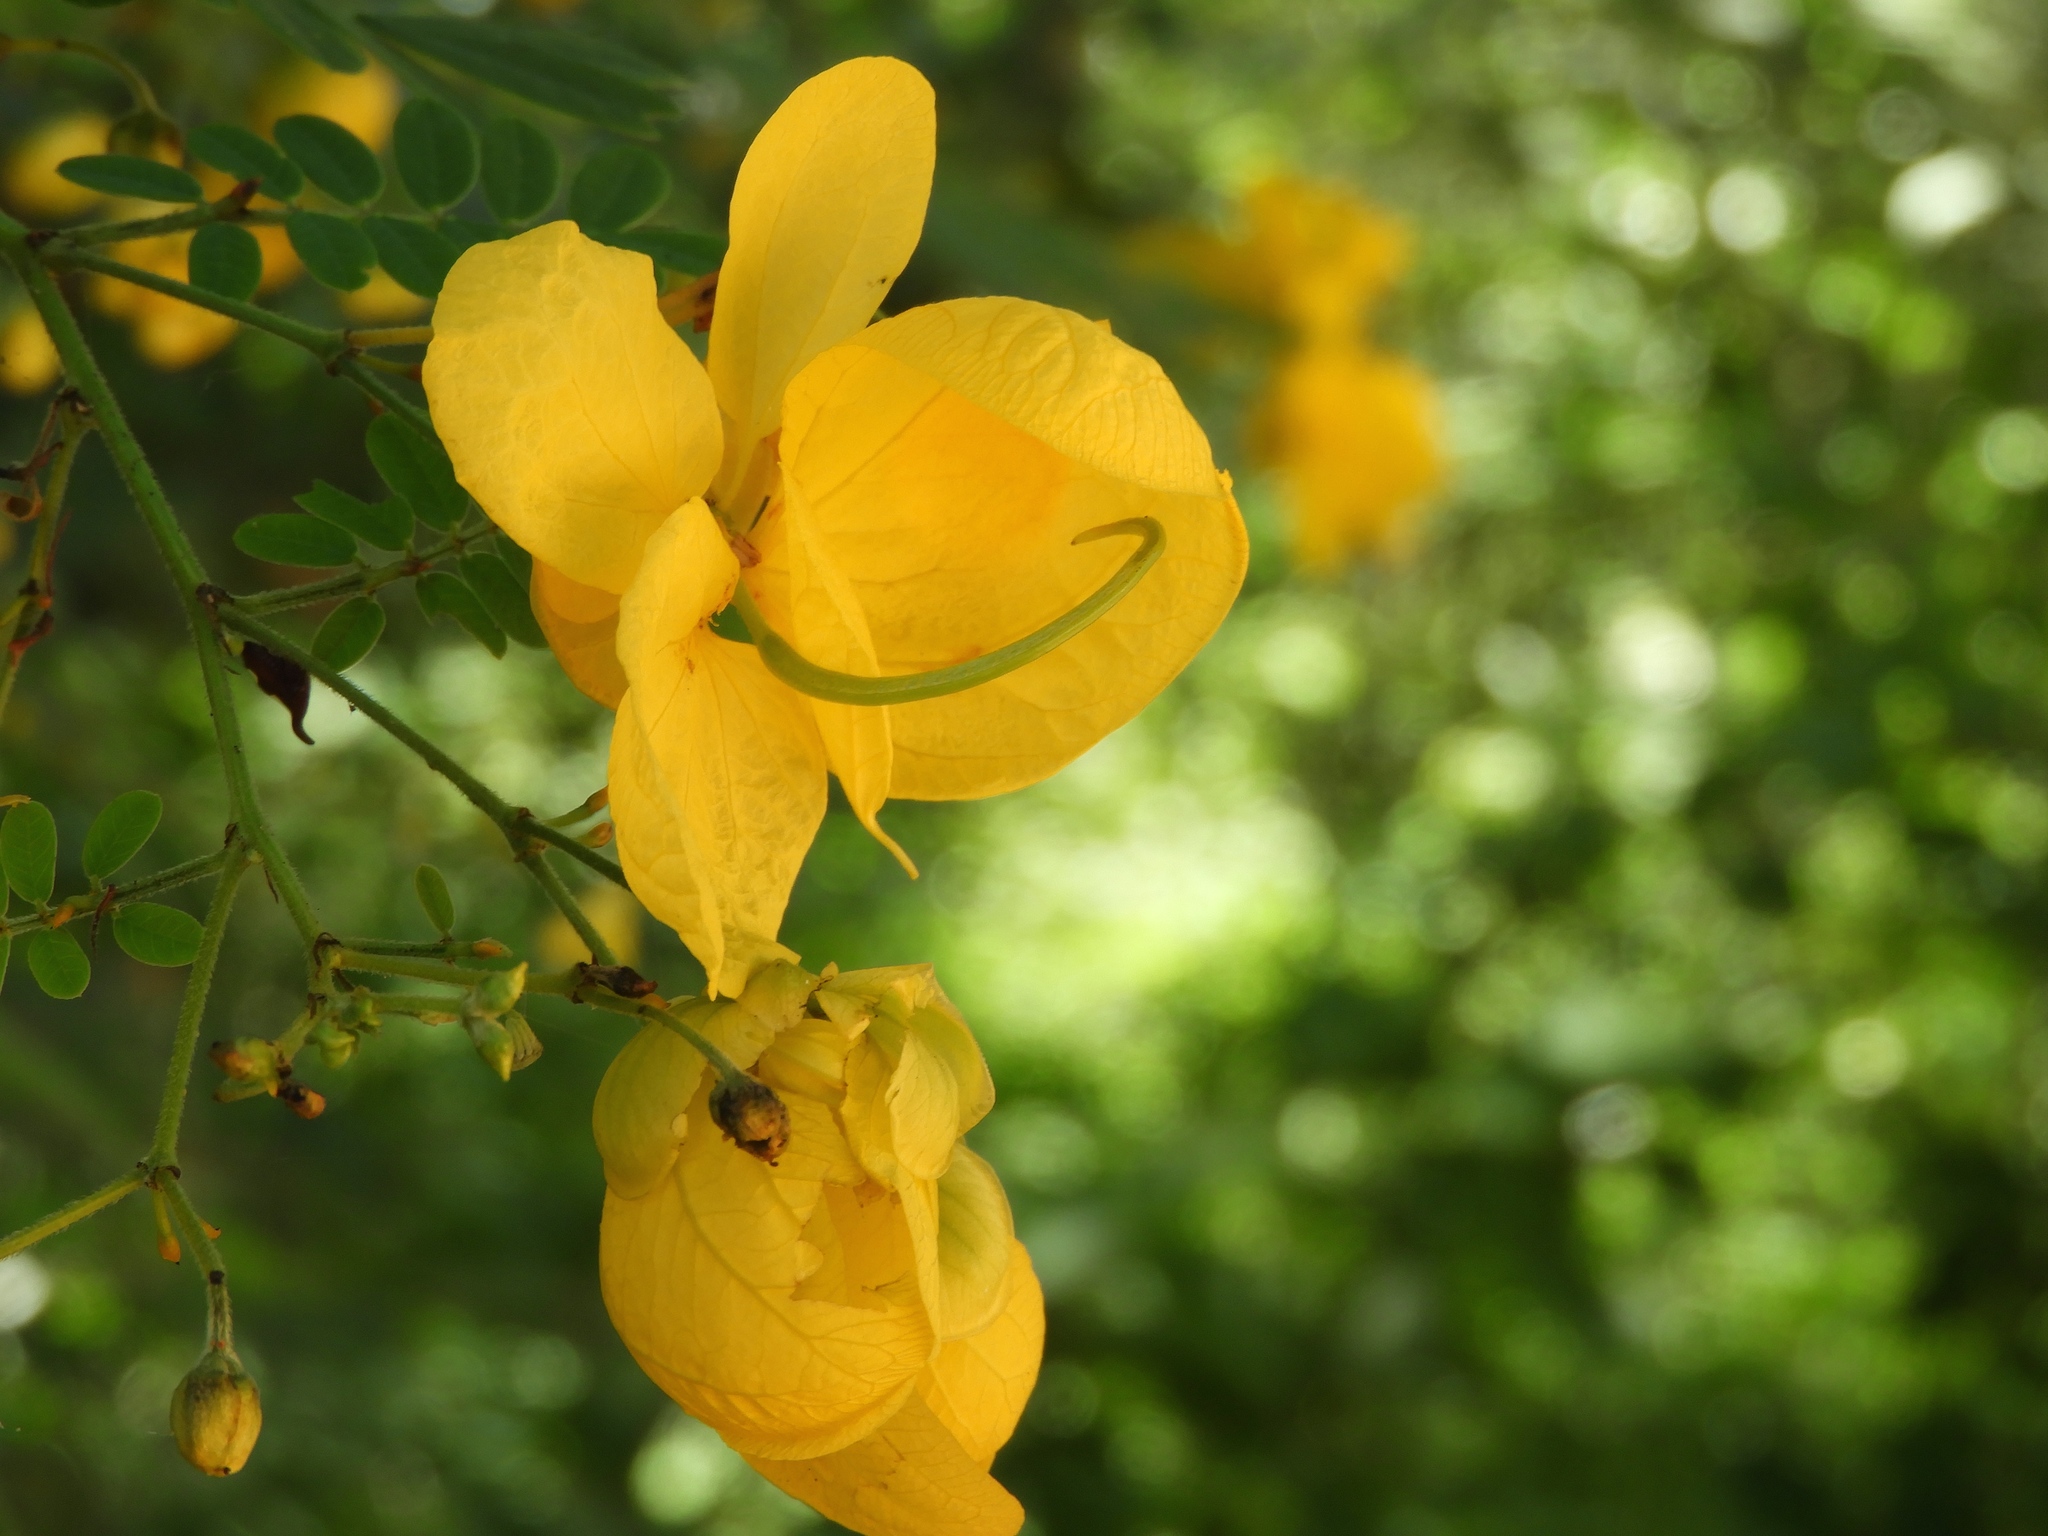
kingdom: Plantae
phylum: Tracheophyta
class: Magnoliopsida
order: Fabales
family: Fabaceae
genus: Senna
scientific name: Senna pallida
